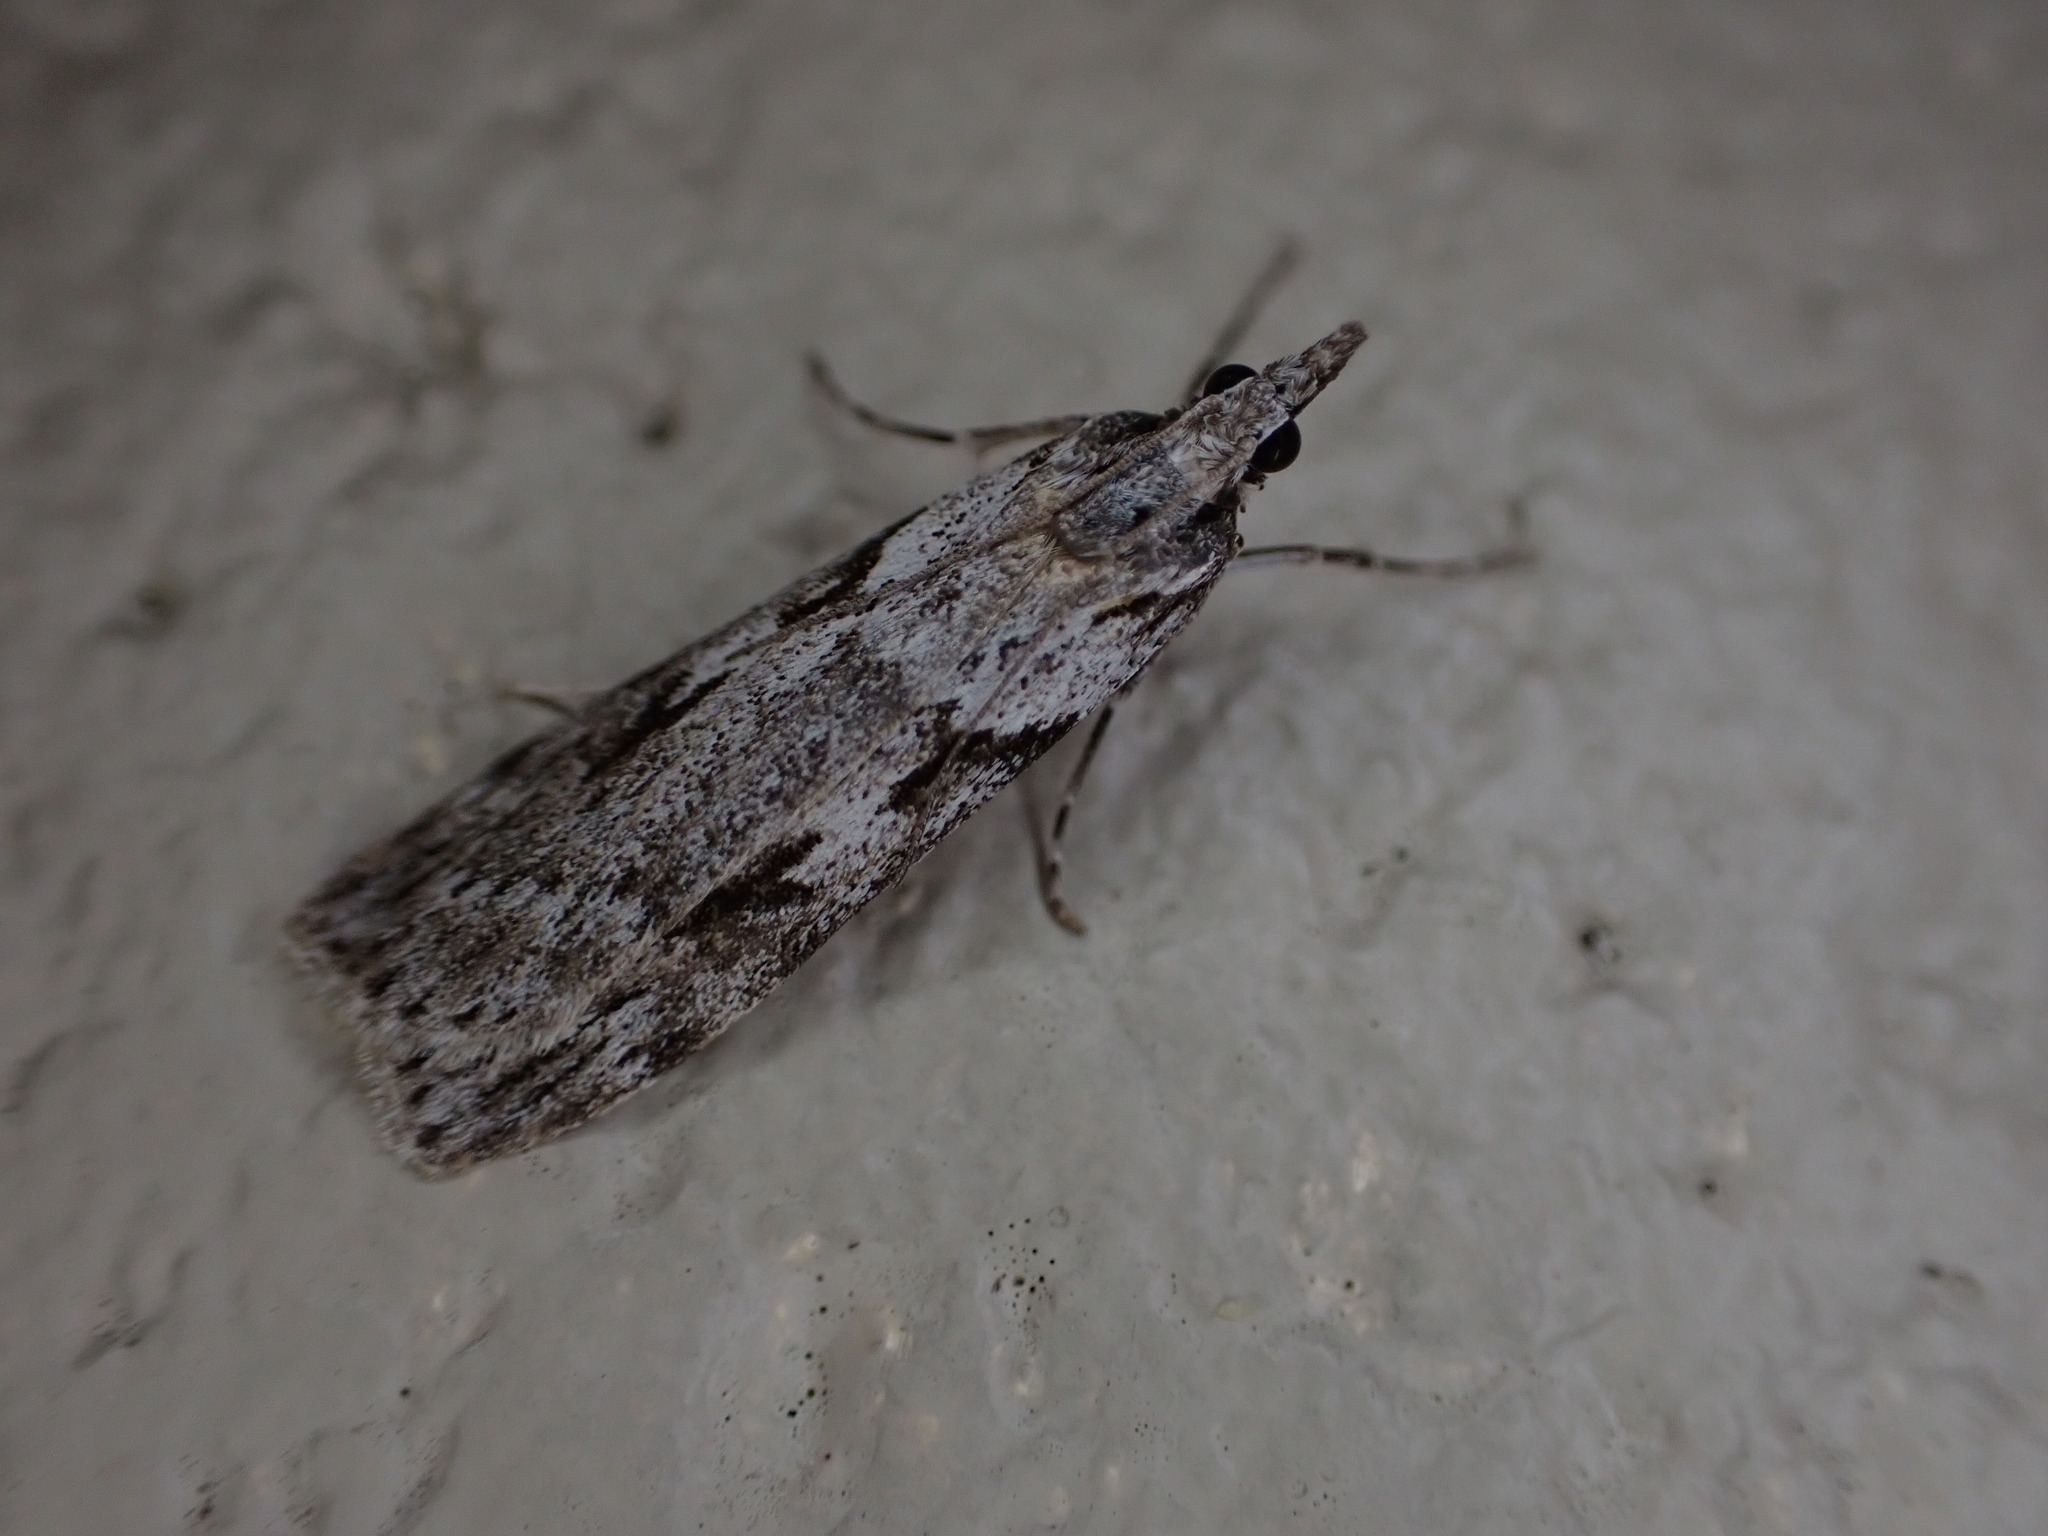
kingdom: Animalia
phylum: Arthropoda
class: Insecta
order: Lepidoptera
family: Crambidae
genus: Scoparia
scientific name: Scoparia halopis
